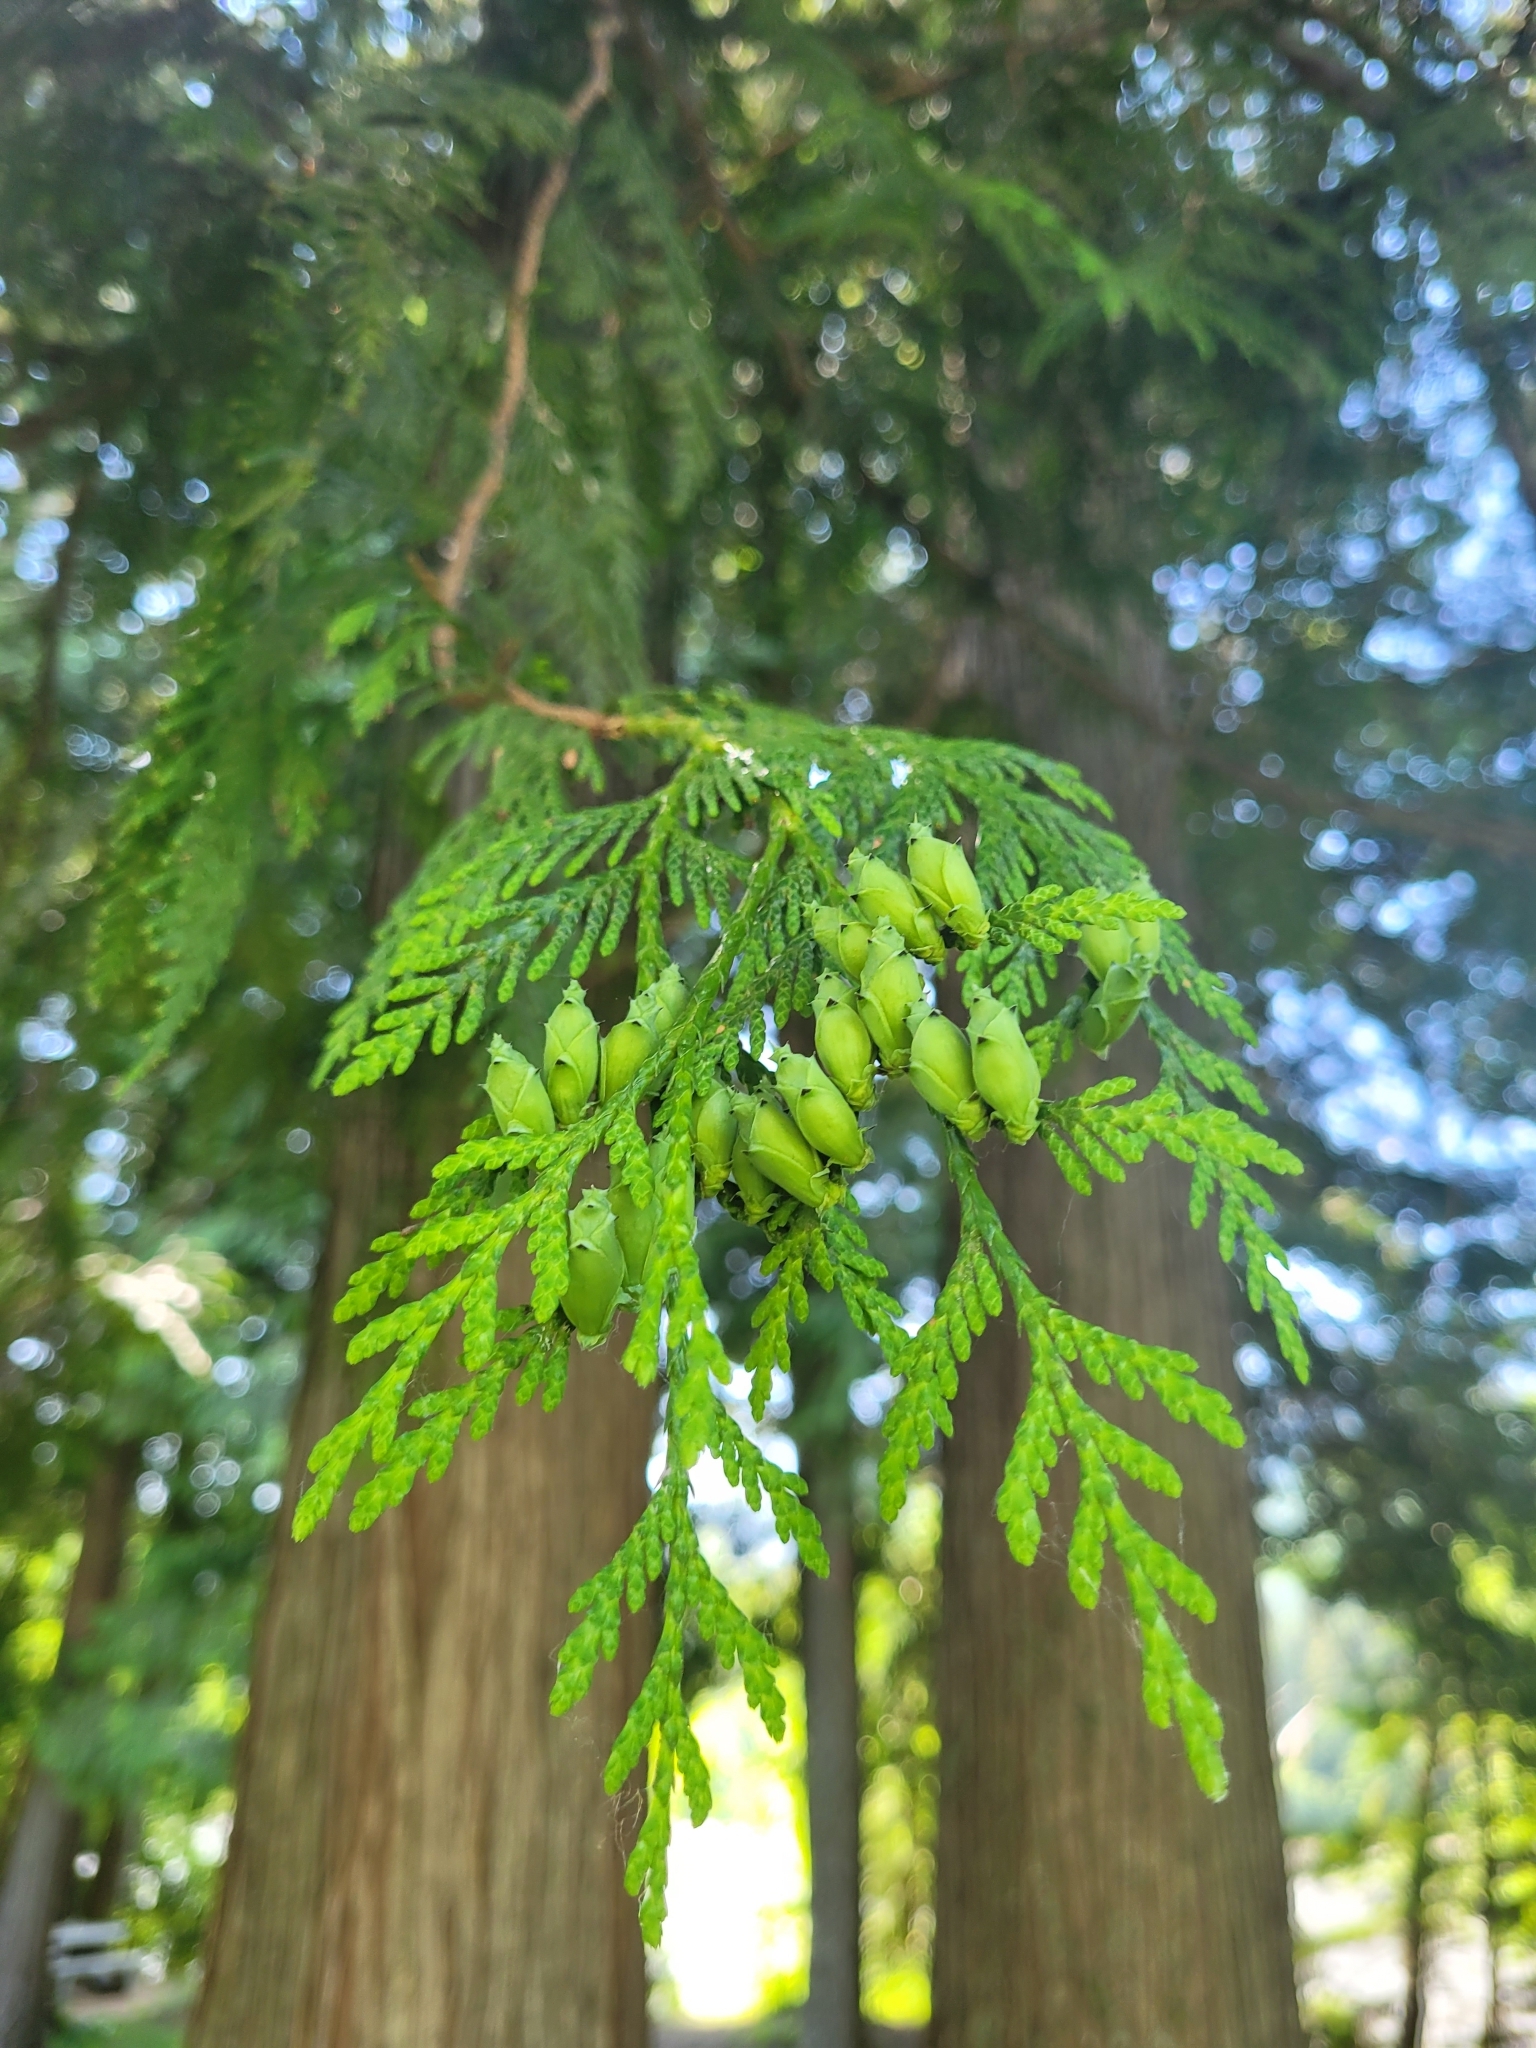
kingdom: Plantae
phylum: Tracheophyta
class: Pinopsida
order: Pinales
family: Cupressaceae
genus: Thuja
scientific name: Thuja plicata
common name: Western red-cedar
